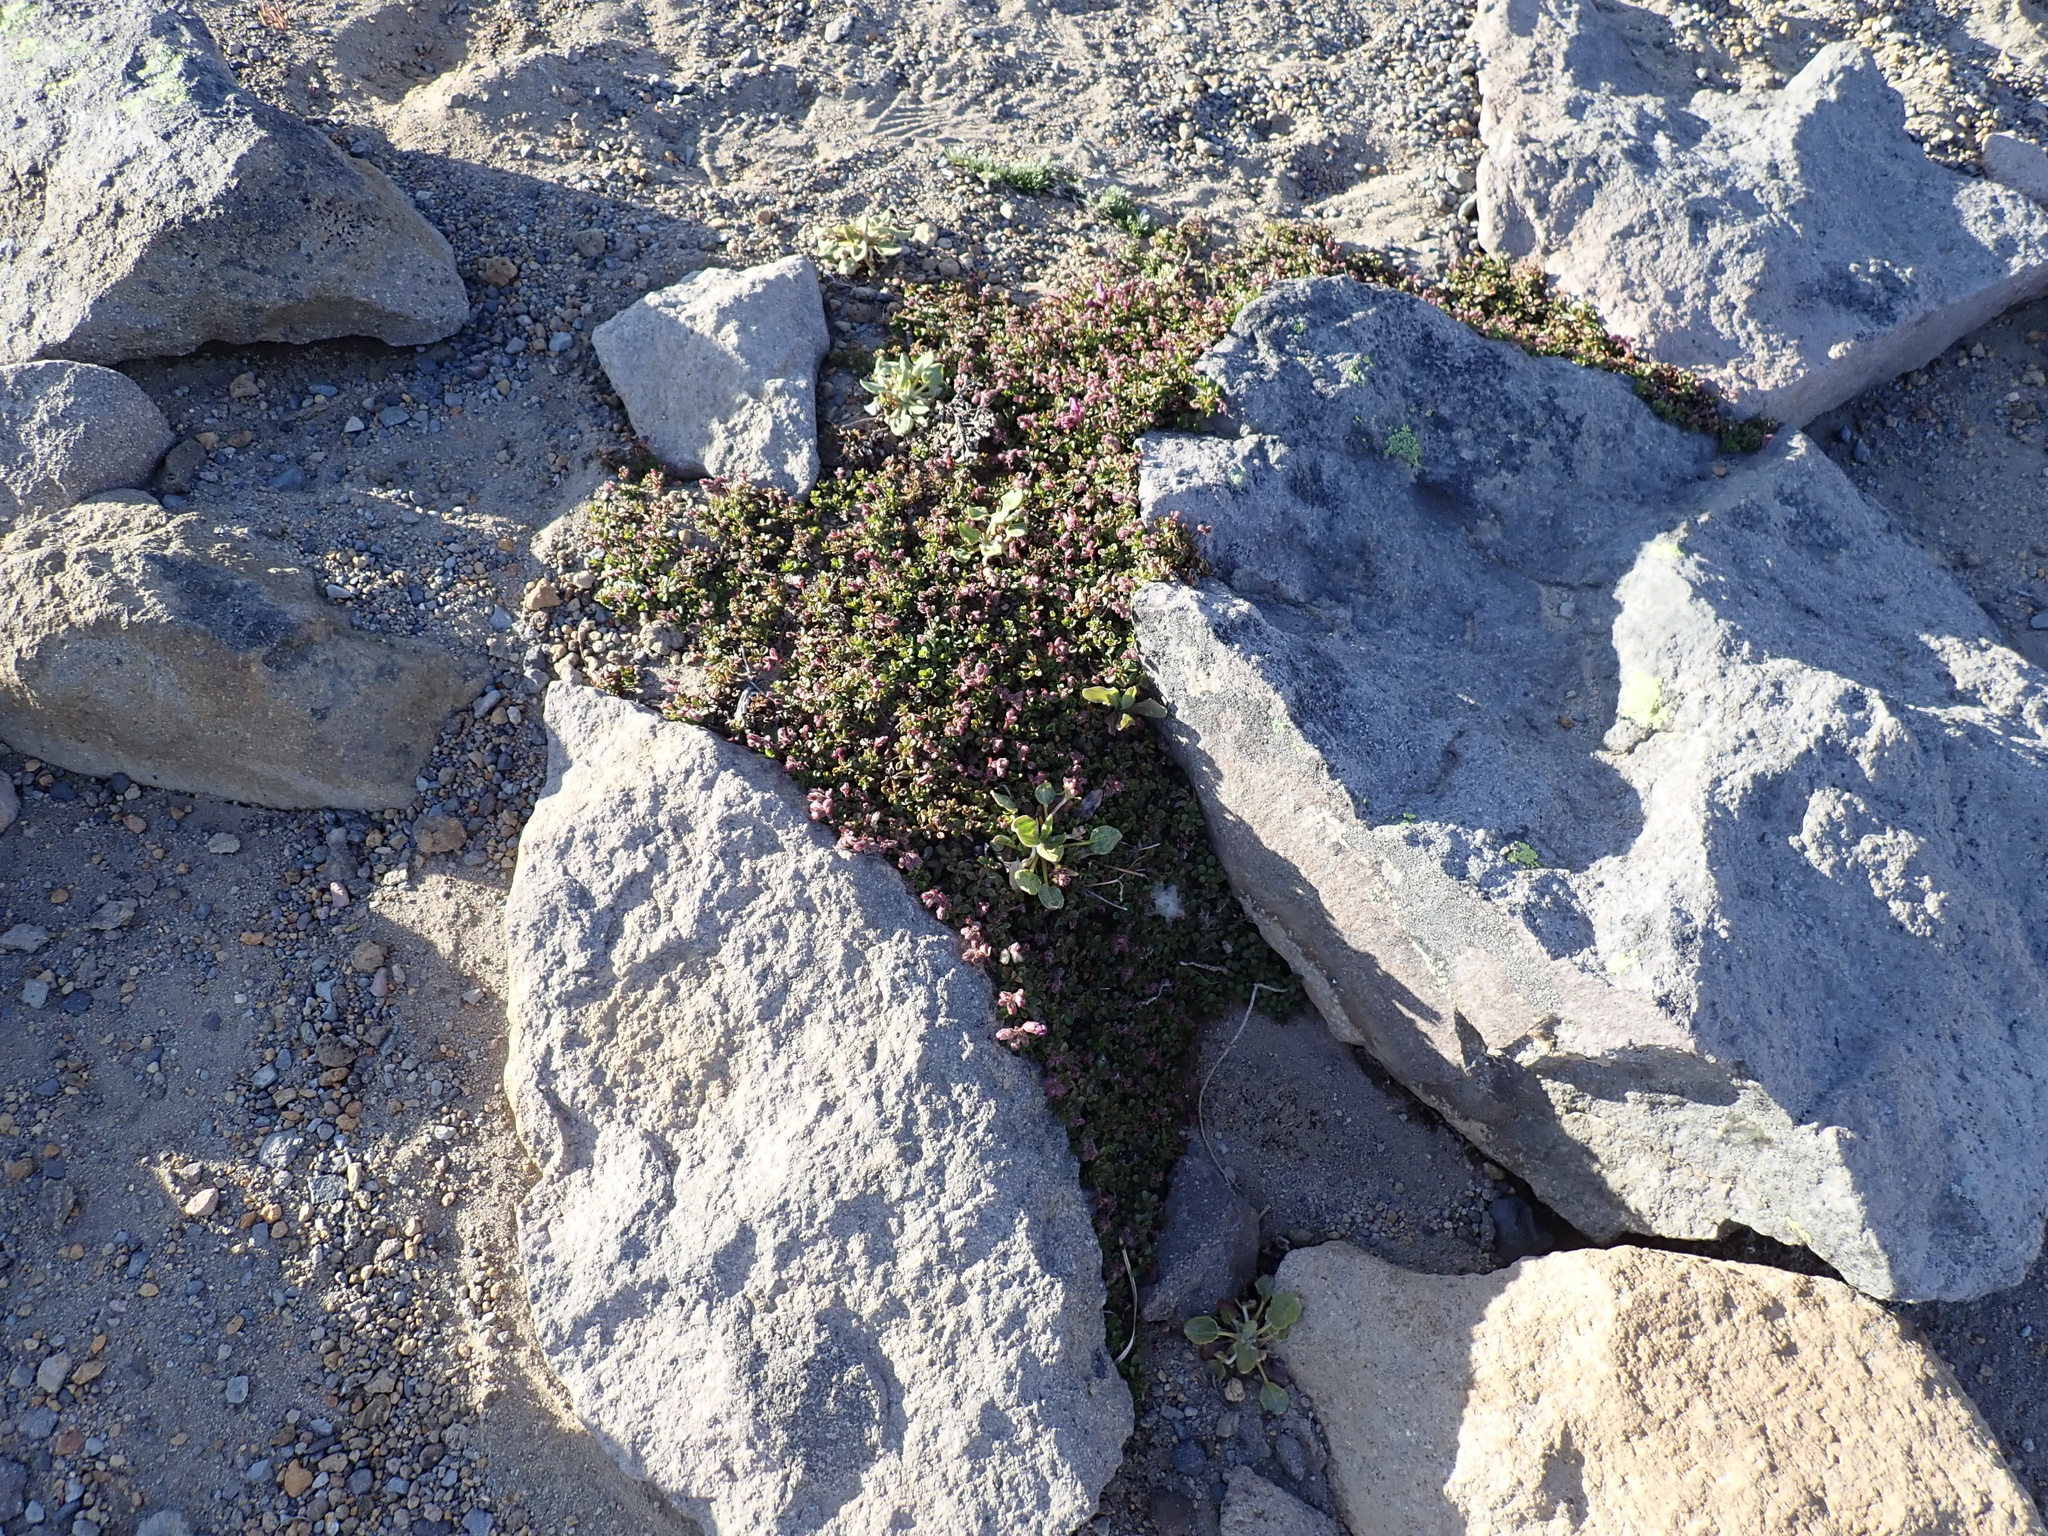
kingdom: Plantae
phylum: Tracheophyta
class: Magnoliopsida
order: Lamiales
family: Plantaginaceae
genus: Penstemon
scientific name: Penstemon davidsonii
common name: Davidson's penstemon
